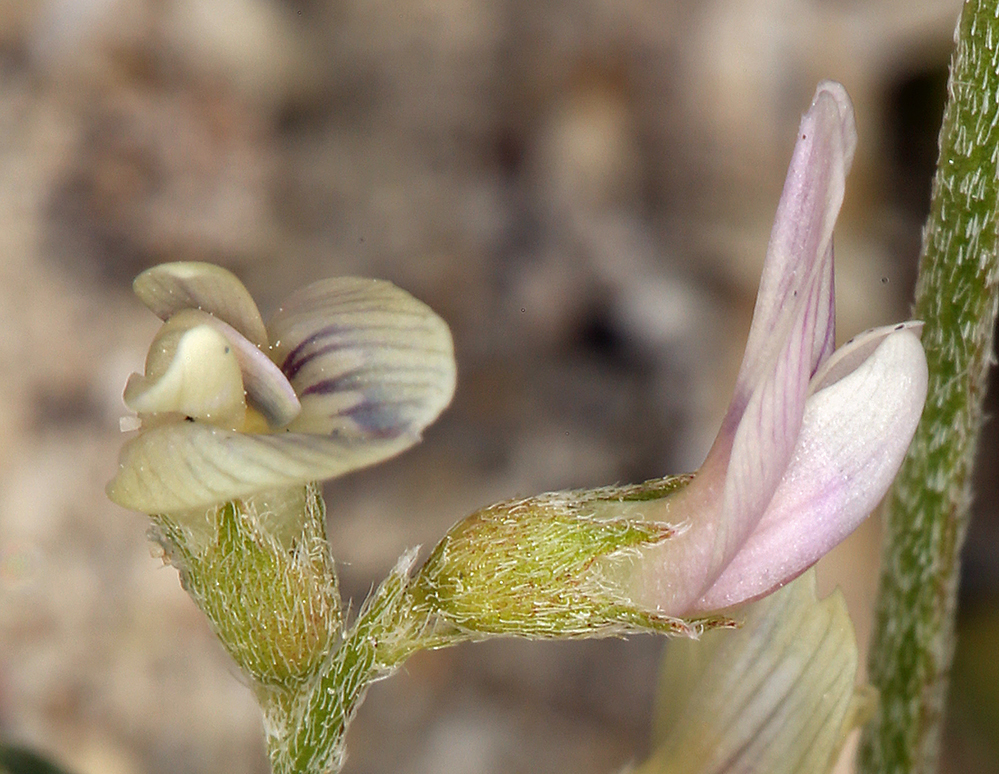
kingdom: Plantae
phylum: Tracheophyta
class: Magnoliopsida
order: Fabales
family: Fabaceae
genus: Astragalus
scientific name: Astragalus geyeri
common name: Geyer's milkvetch
